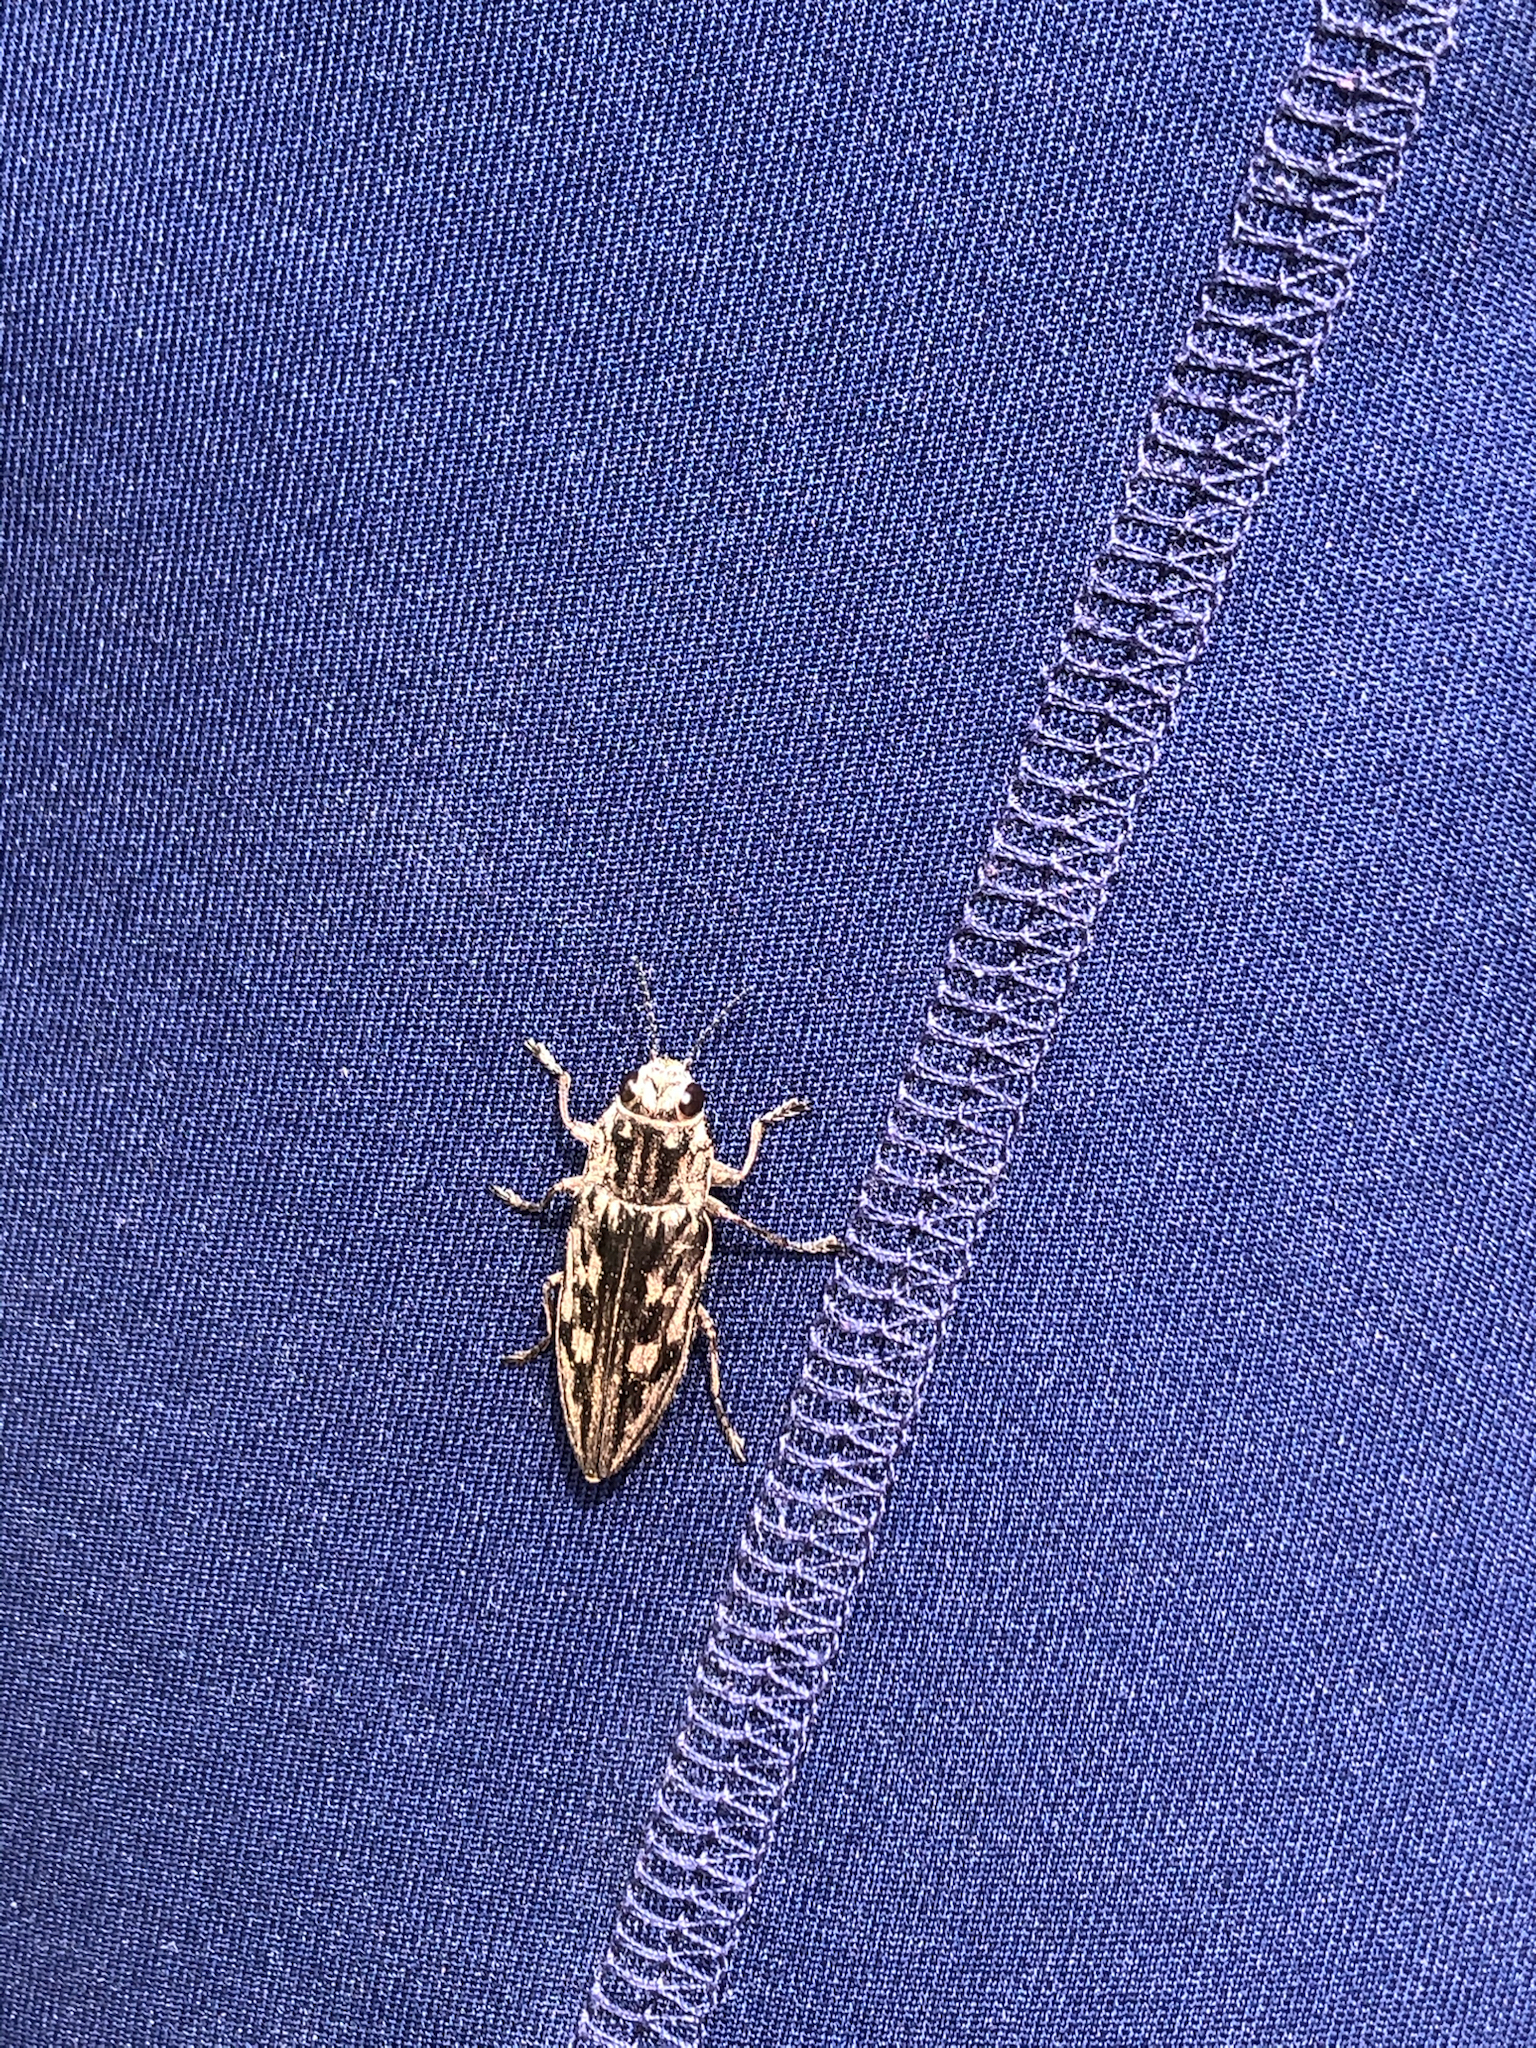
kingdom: Animalia
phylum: Arthropoda
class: Insecta
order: Coleoptera
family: Buprestidae
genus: Chalcophora
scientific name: Chalcophora virginiensis
